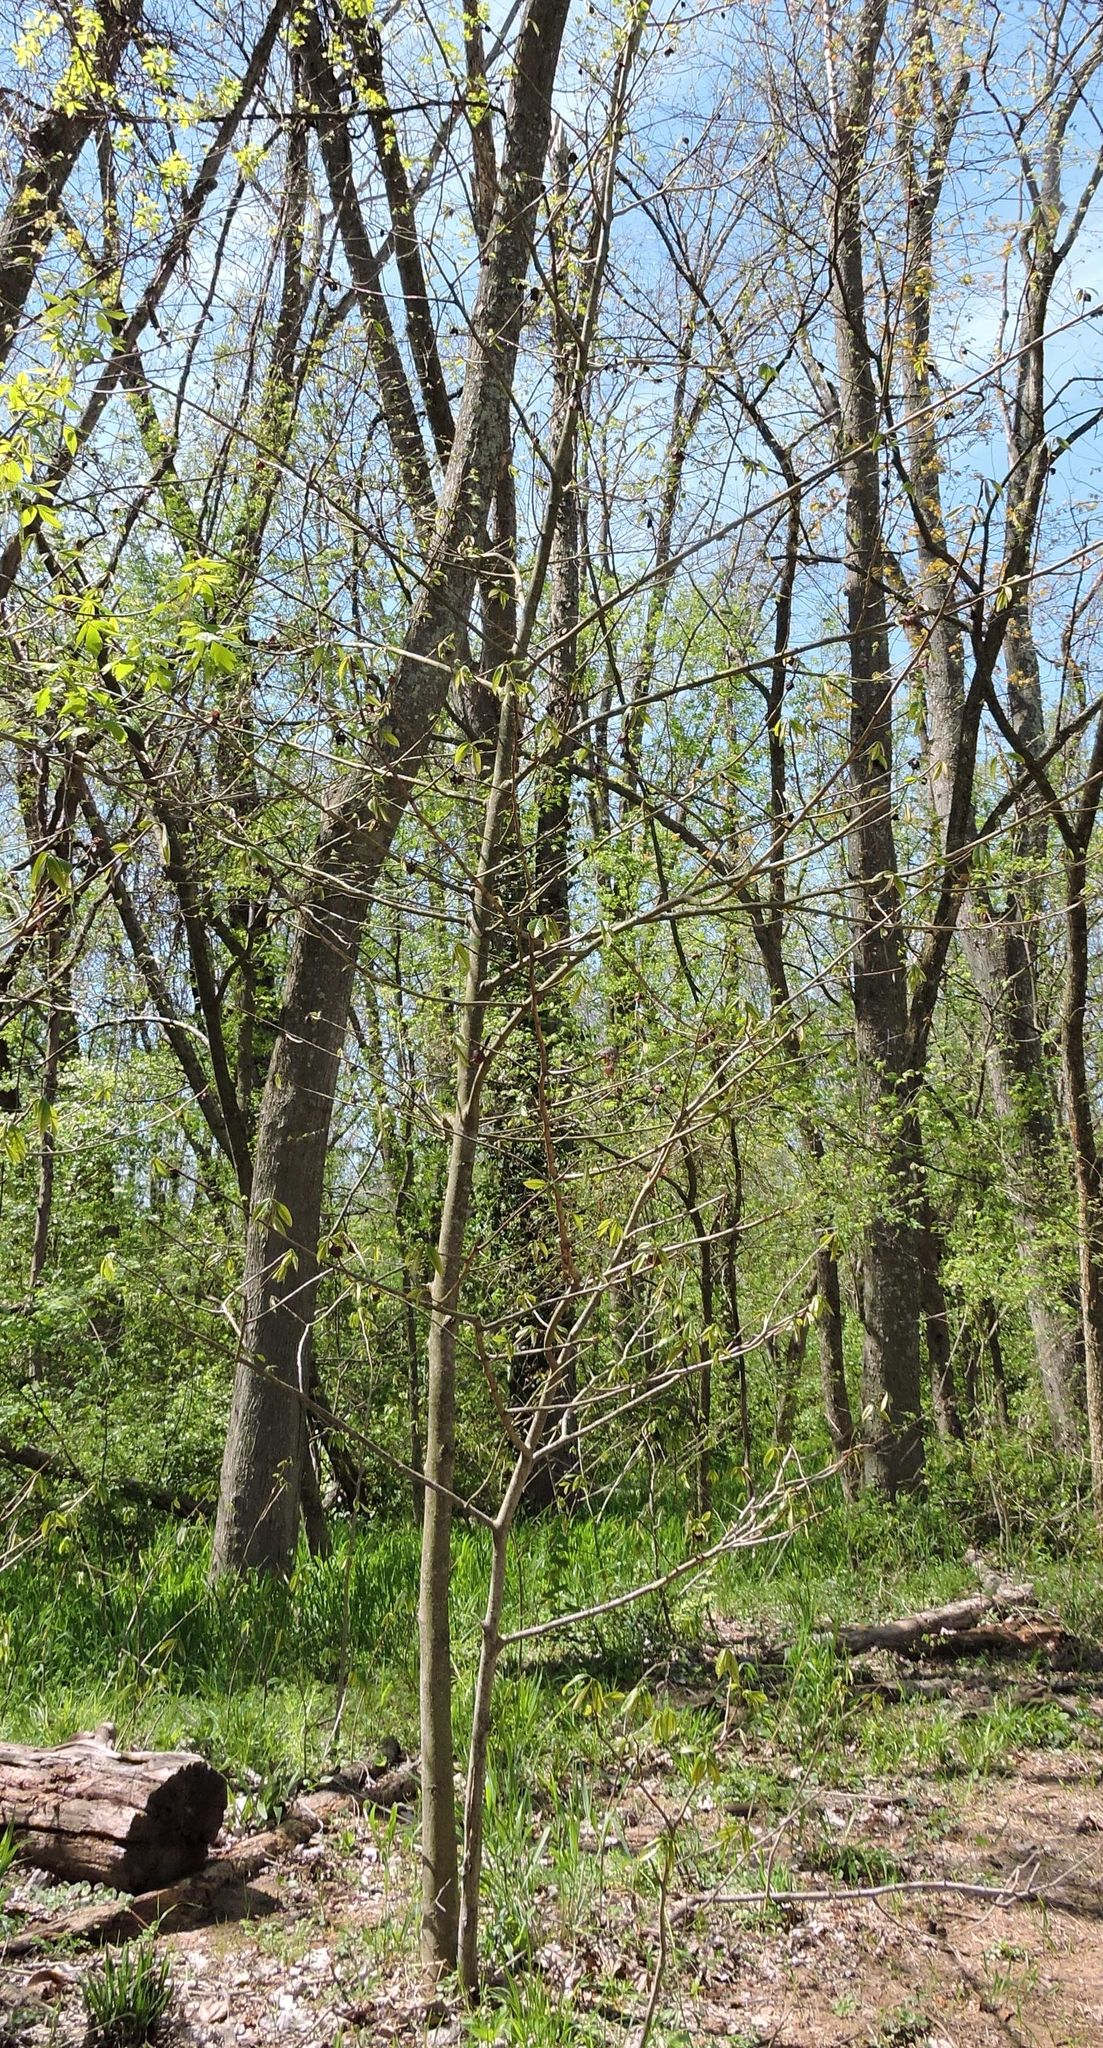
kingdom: Plantae
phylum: Tracheophyta
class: Magnoliopsida
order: Magnoliales
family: Annonaceae
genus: Asimina
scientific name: Asimina triloba
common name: Dog-banana
